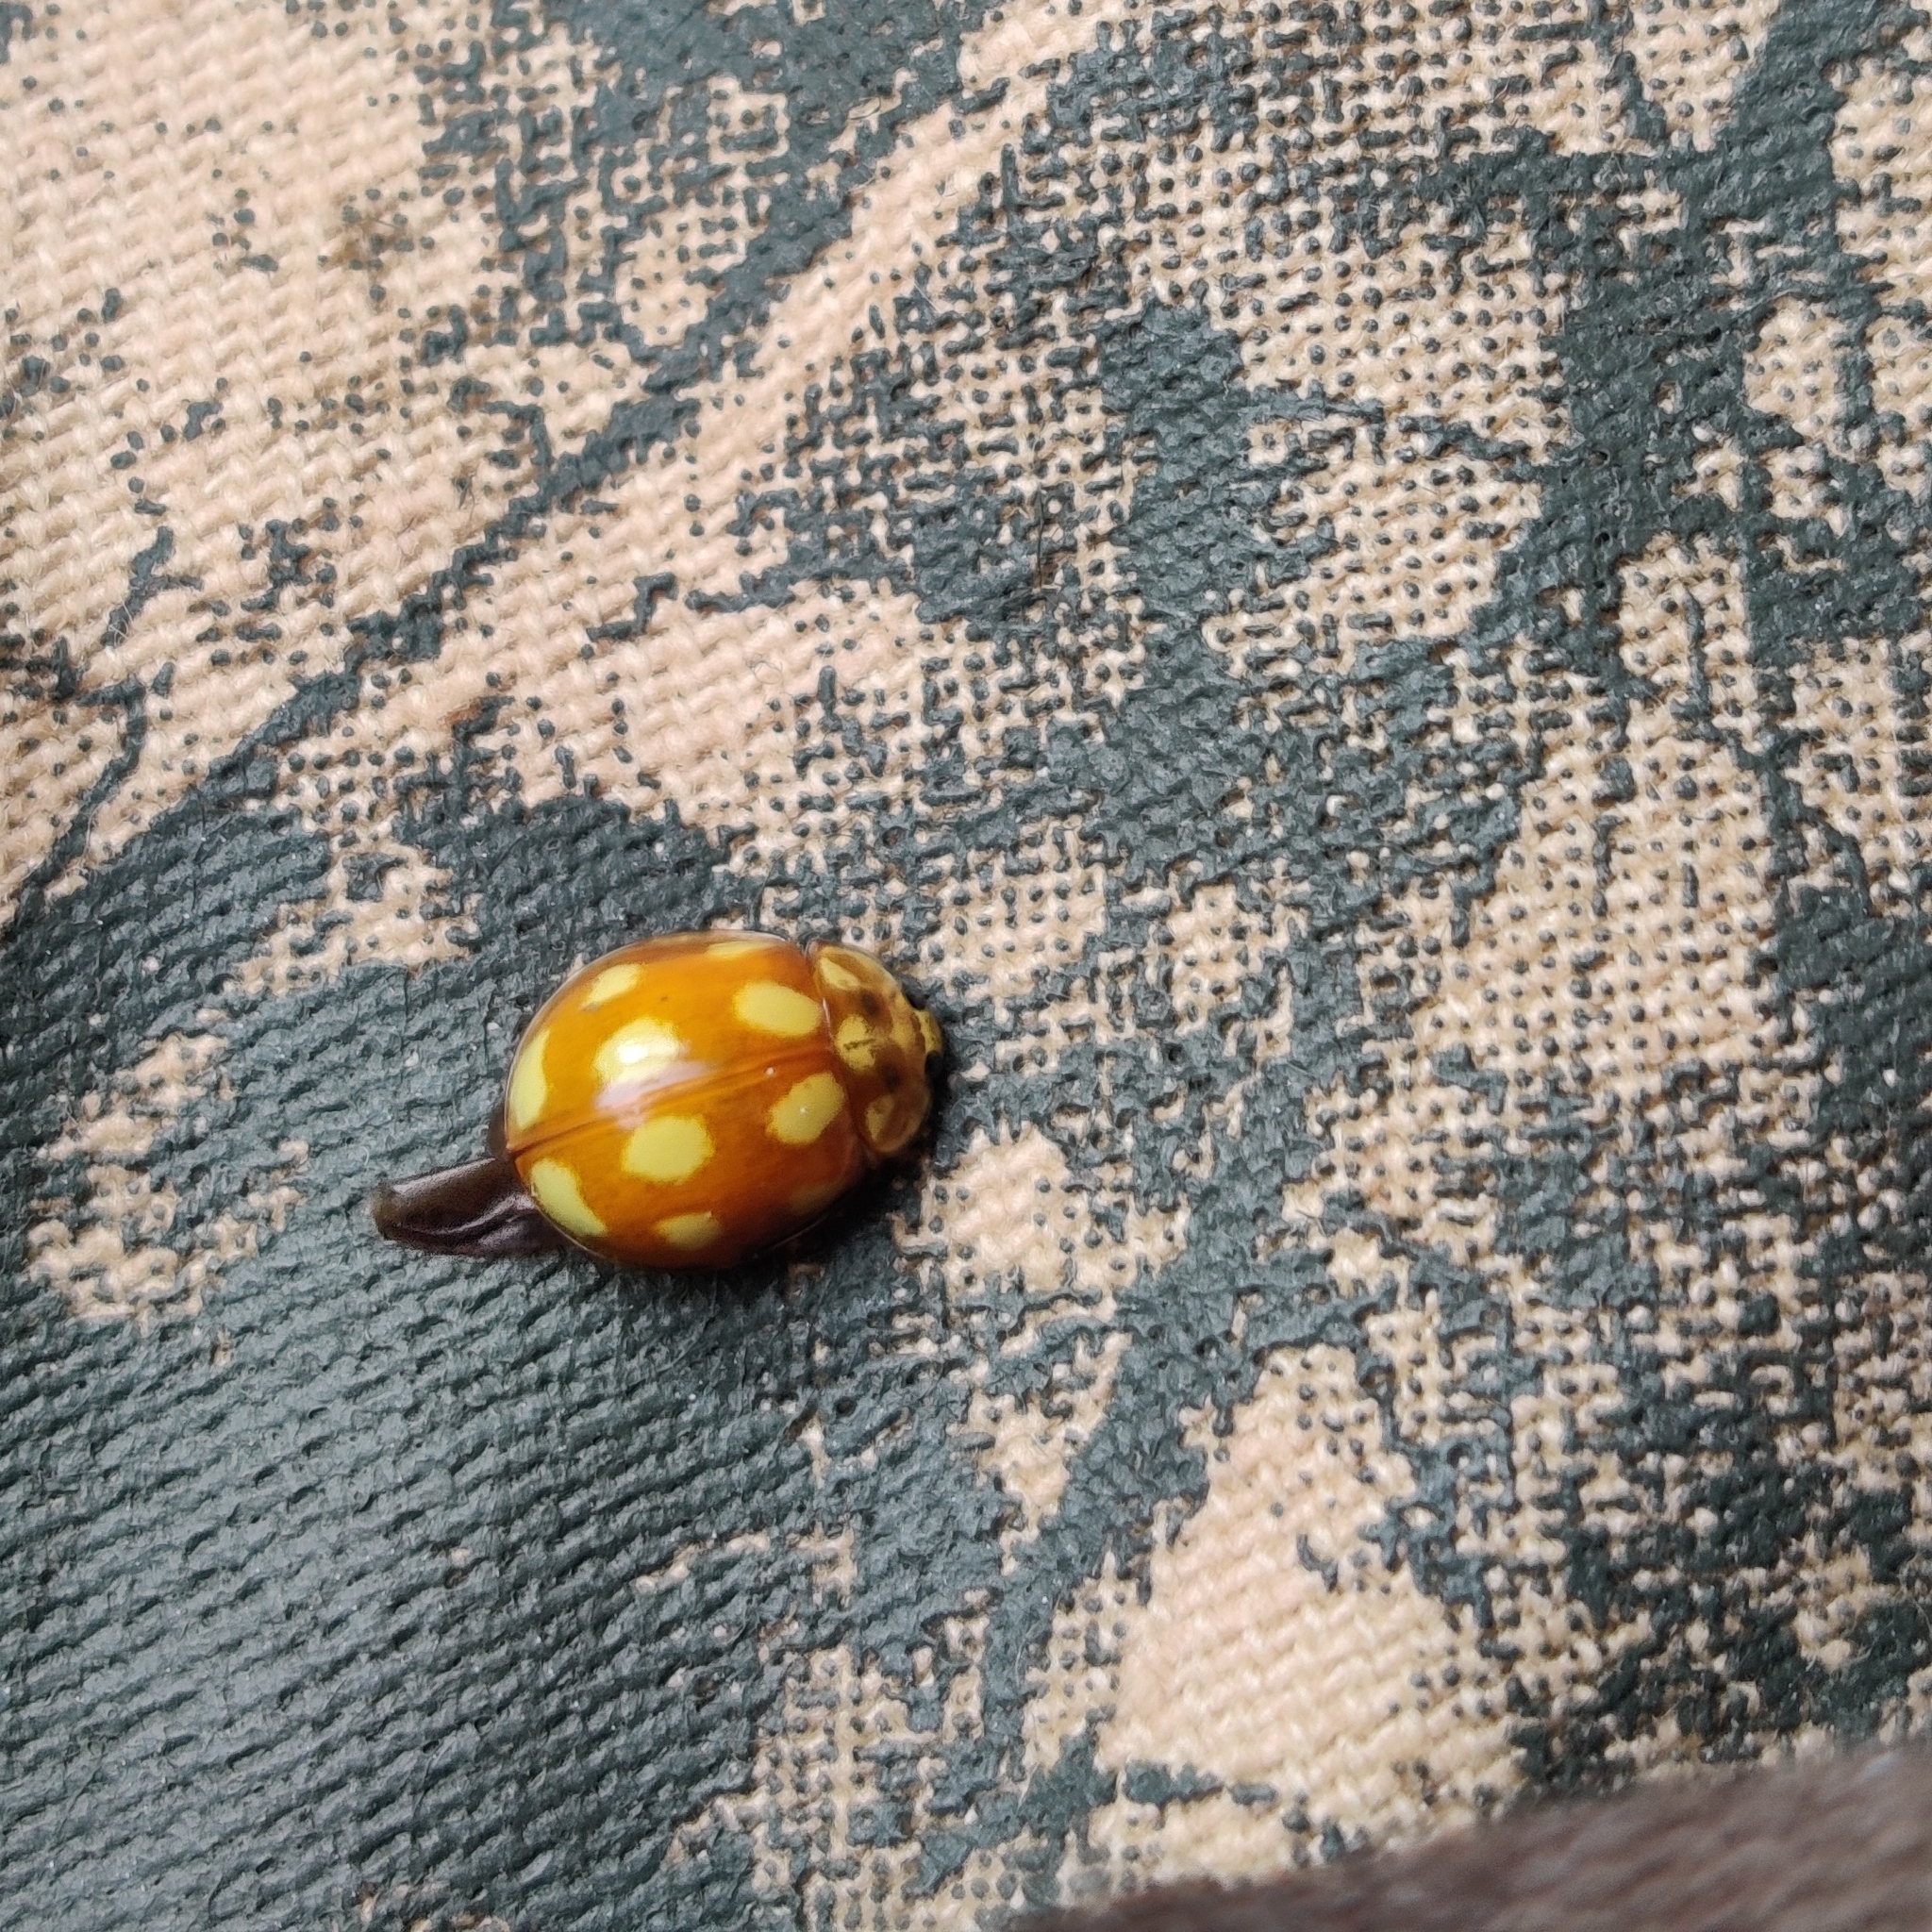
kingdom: Animalia
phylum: Arthropoda
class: Insecta
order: Coleoptera
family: Coccinellidae
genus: Calvia
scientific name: Calvia decemguttata
